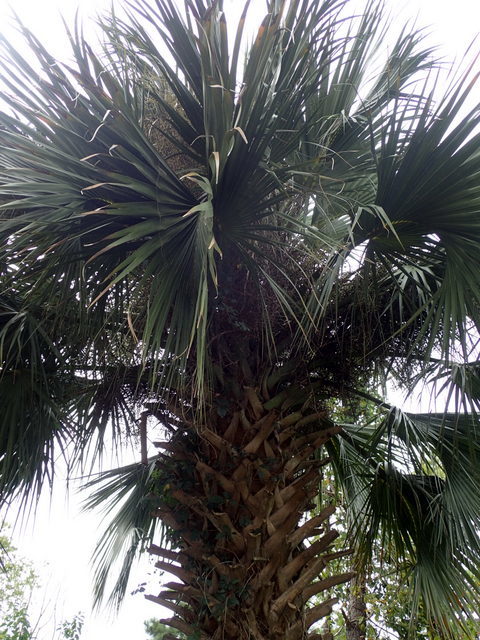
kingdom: Plantae
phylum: Tracheophyta
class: Liliopsida
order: Arecales
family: Arecaceae
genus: Sabal
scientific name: Sabal palmetto
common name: Blue palmetto
